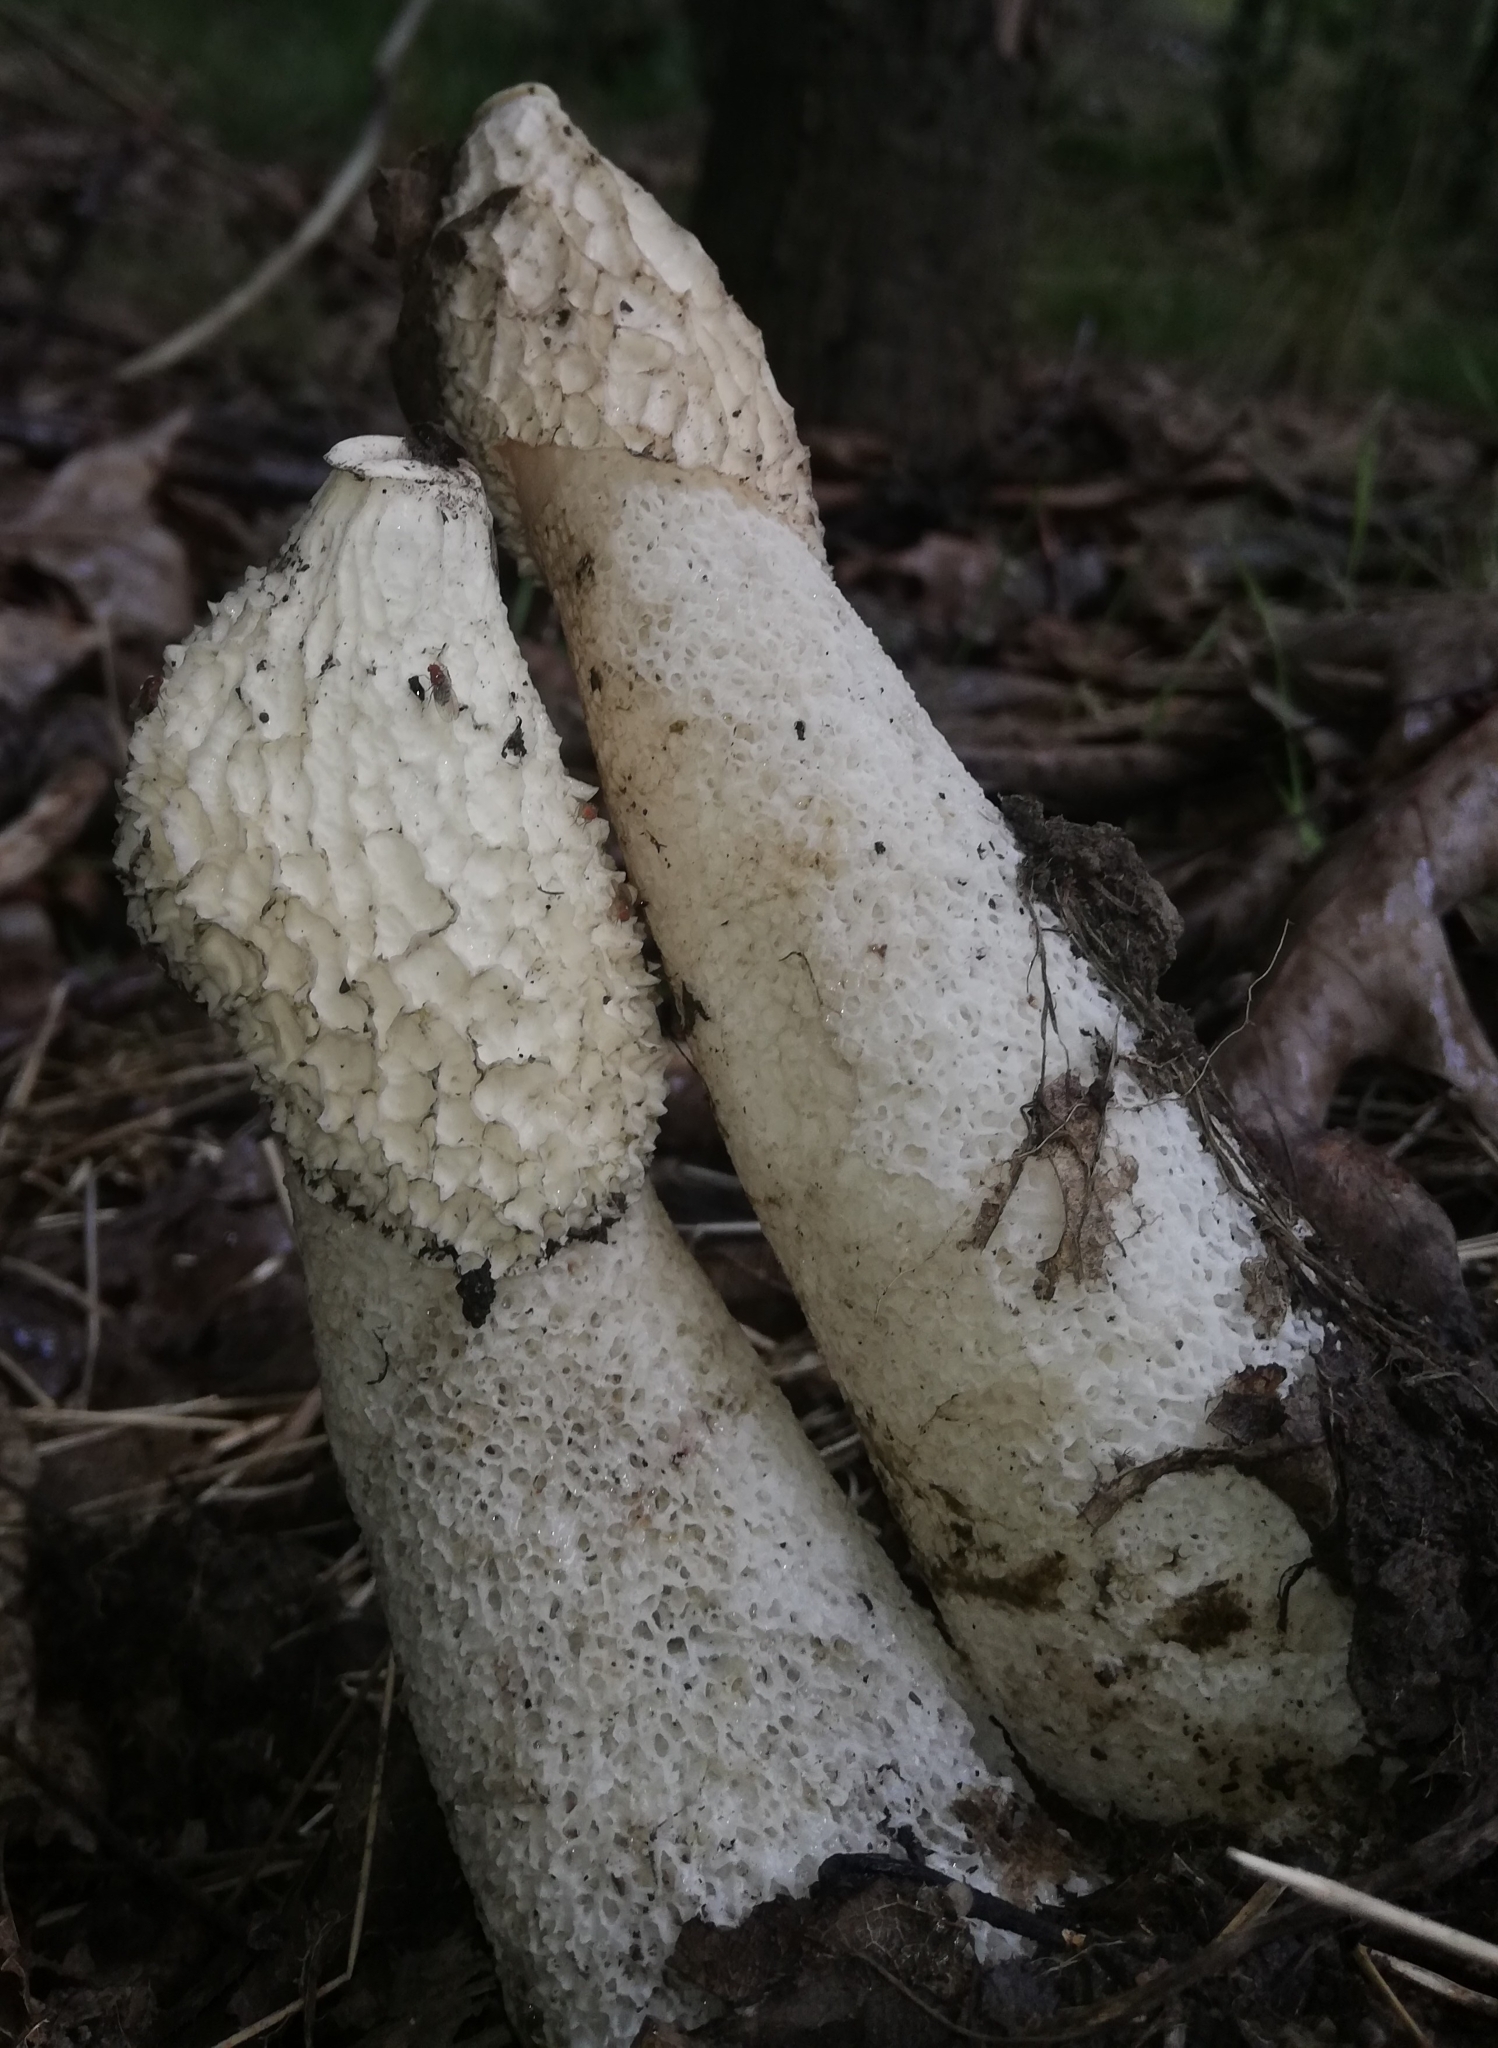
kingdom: Fungi
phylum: Basidiomycota
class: Agaricomycetes
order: Phallales
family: Phallaceae
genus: Phallus
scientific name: Phallus impudicus
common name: Common stinkhorn
